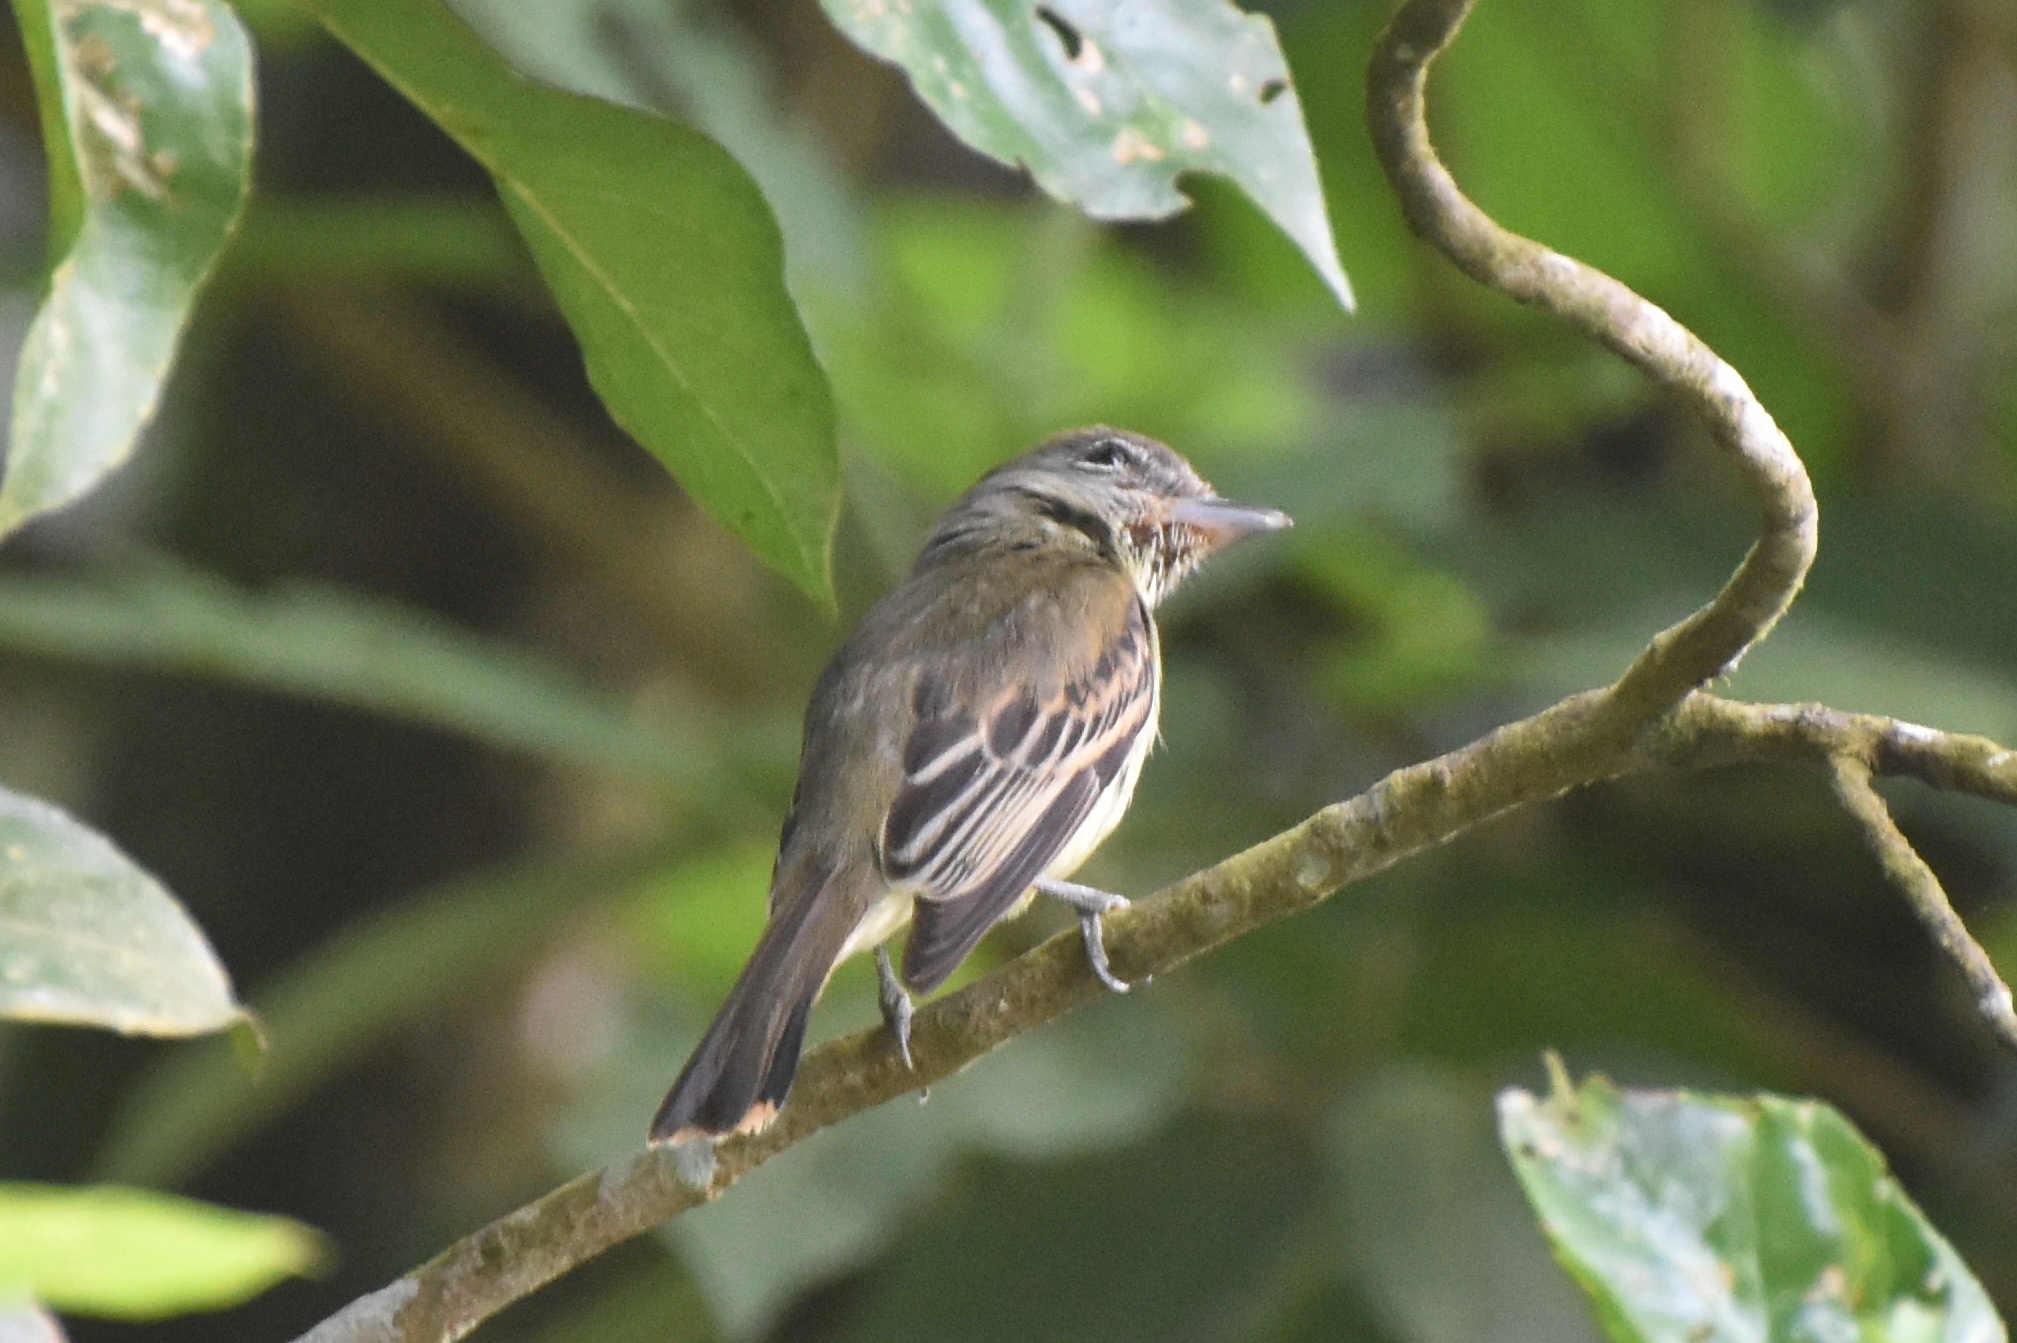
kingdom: Animalia
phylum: Chordata
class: Aves
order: Passeriformes
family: Cotingidae
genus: Pachyramphus
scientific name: Pachyramphus polychopterus
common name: White-winged becard
